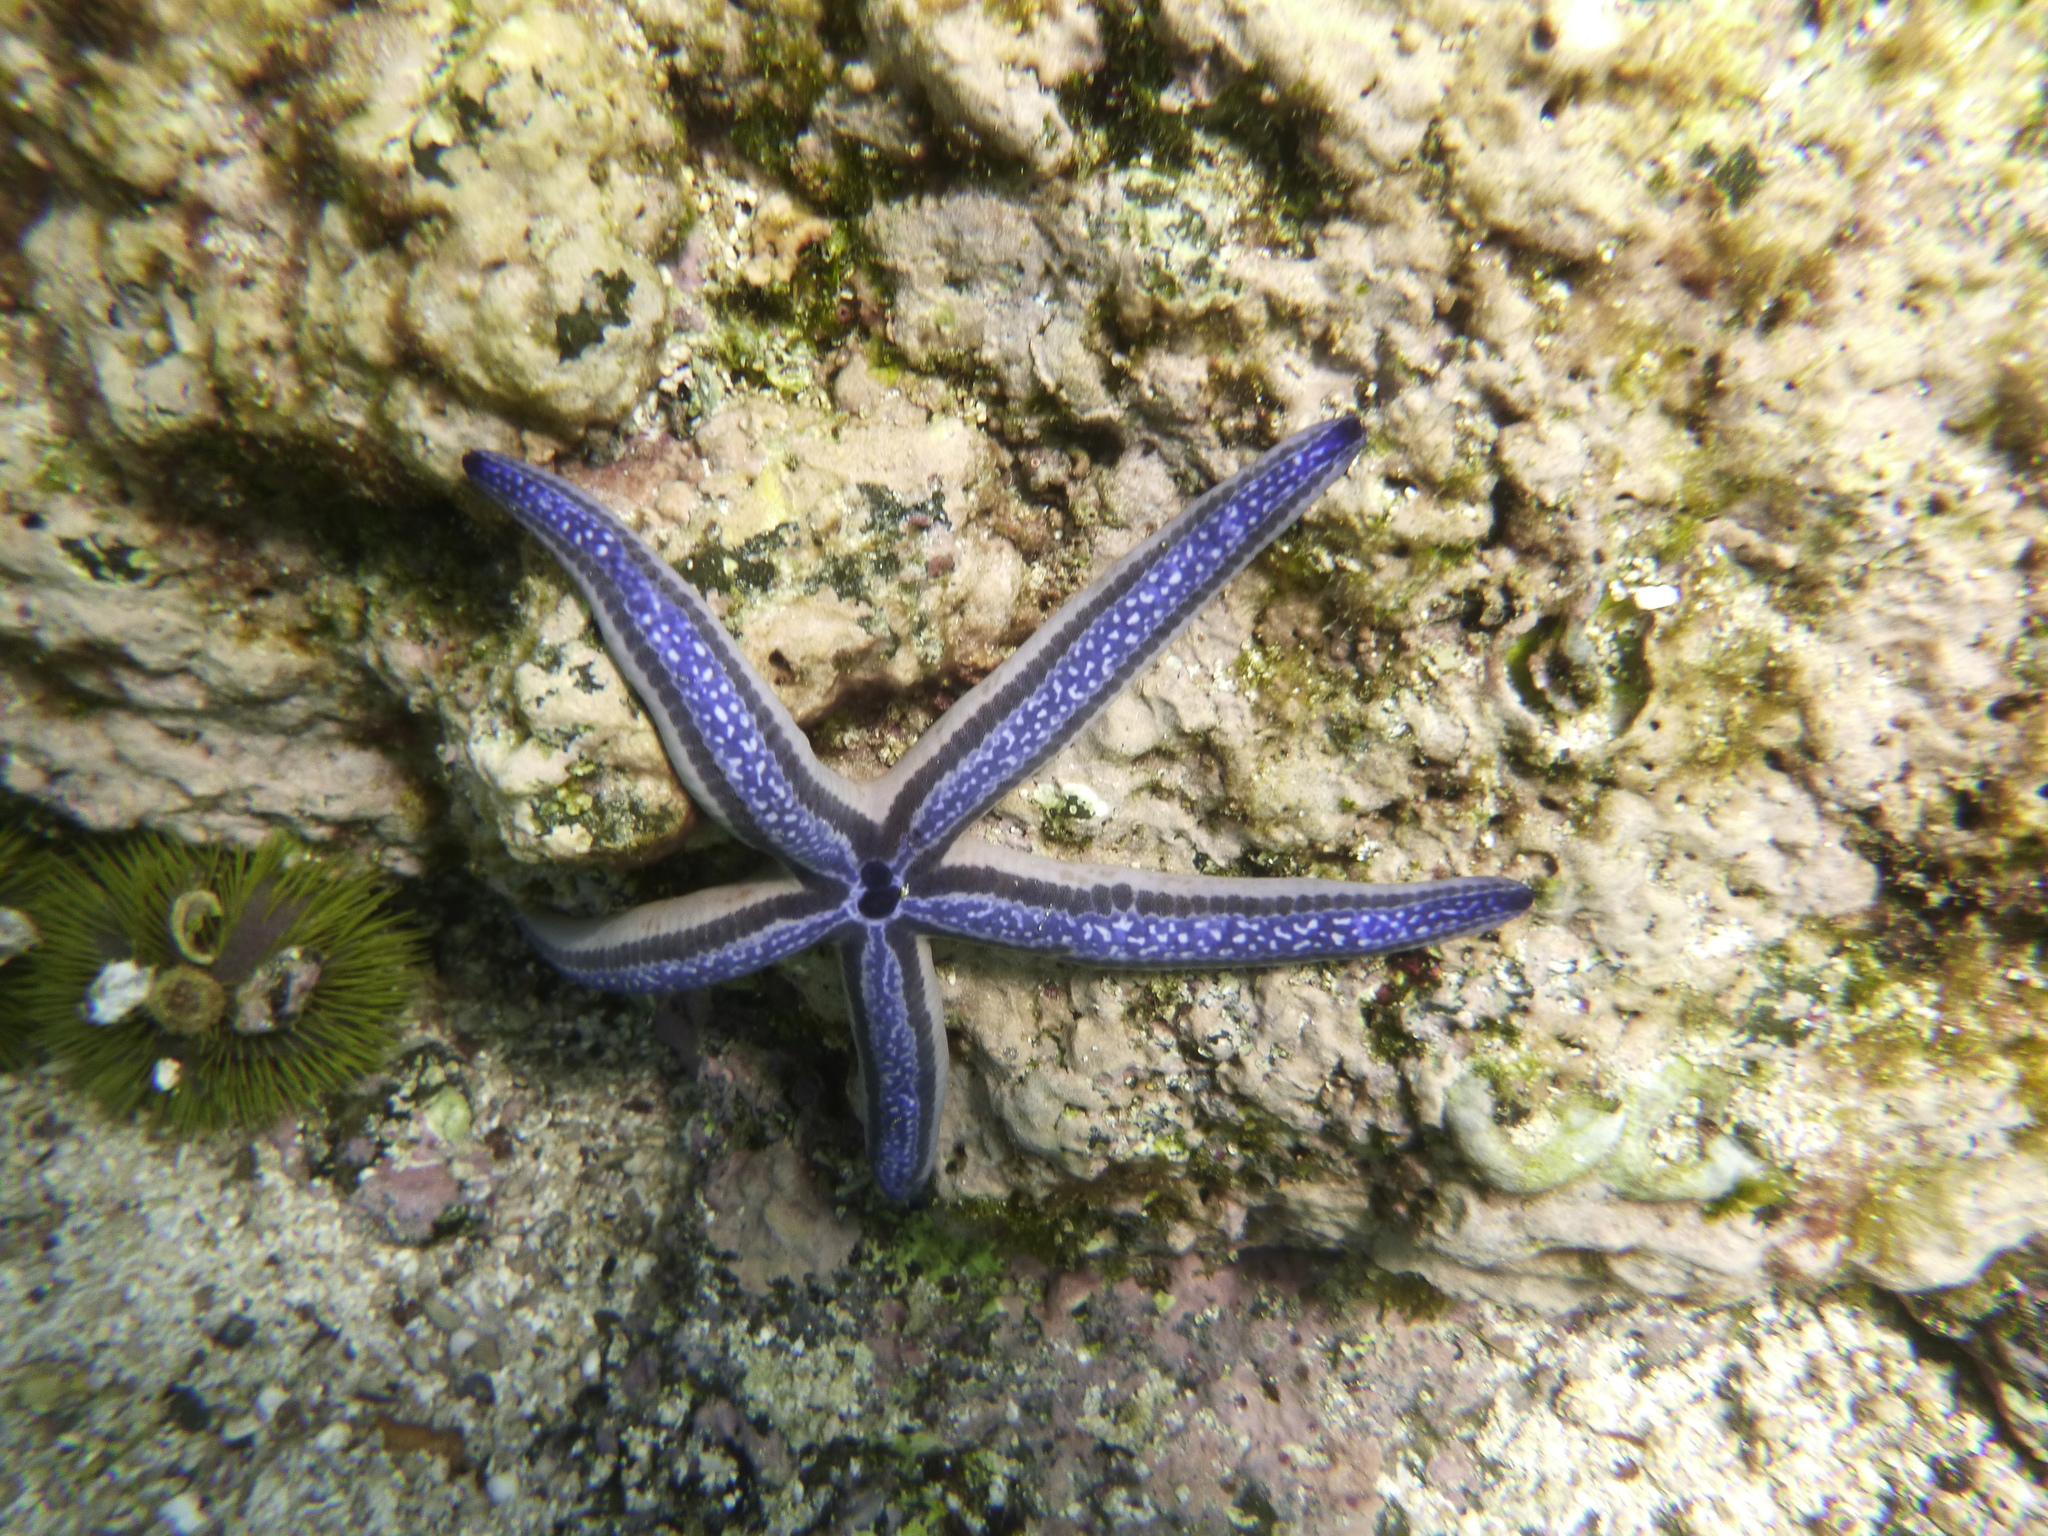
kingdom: Animalia
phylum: Echinodermata
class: Asteroidea
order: Valvatida
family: Ophidiasteridae
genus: Phataria
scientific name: Phataria unifascialis
